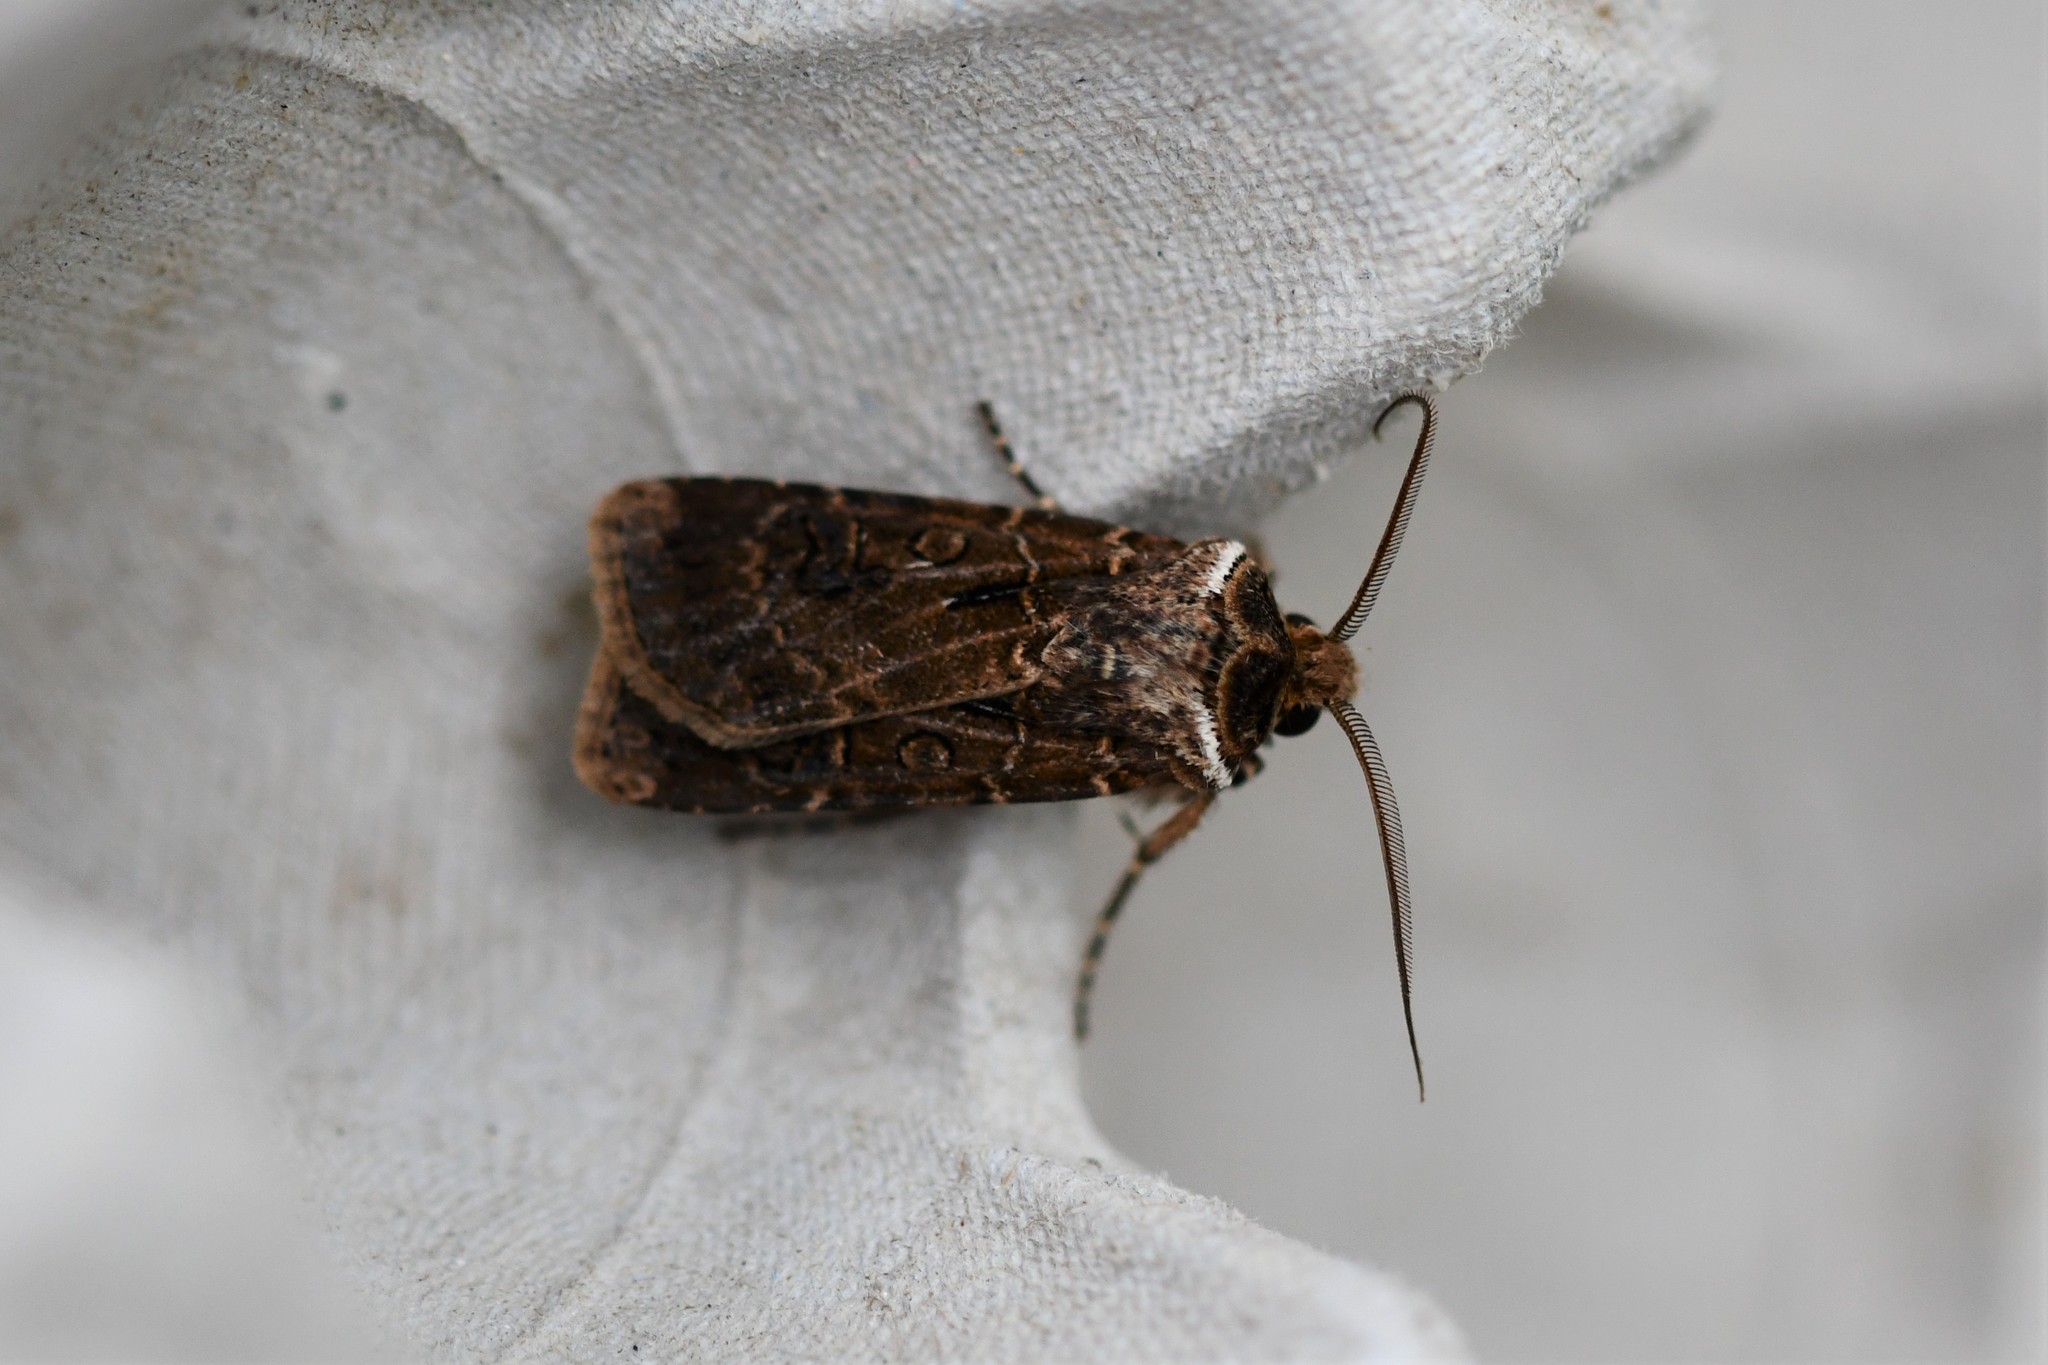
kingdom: Animalia
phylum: Arthropoda
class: Insecta
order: Lepidoptera
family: Noctuidae
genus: Agrotis
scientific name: Agrotis clavis
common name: Heart and club
